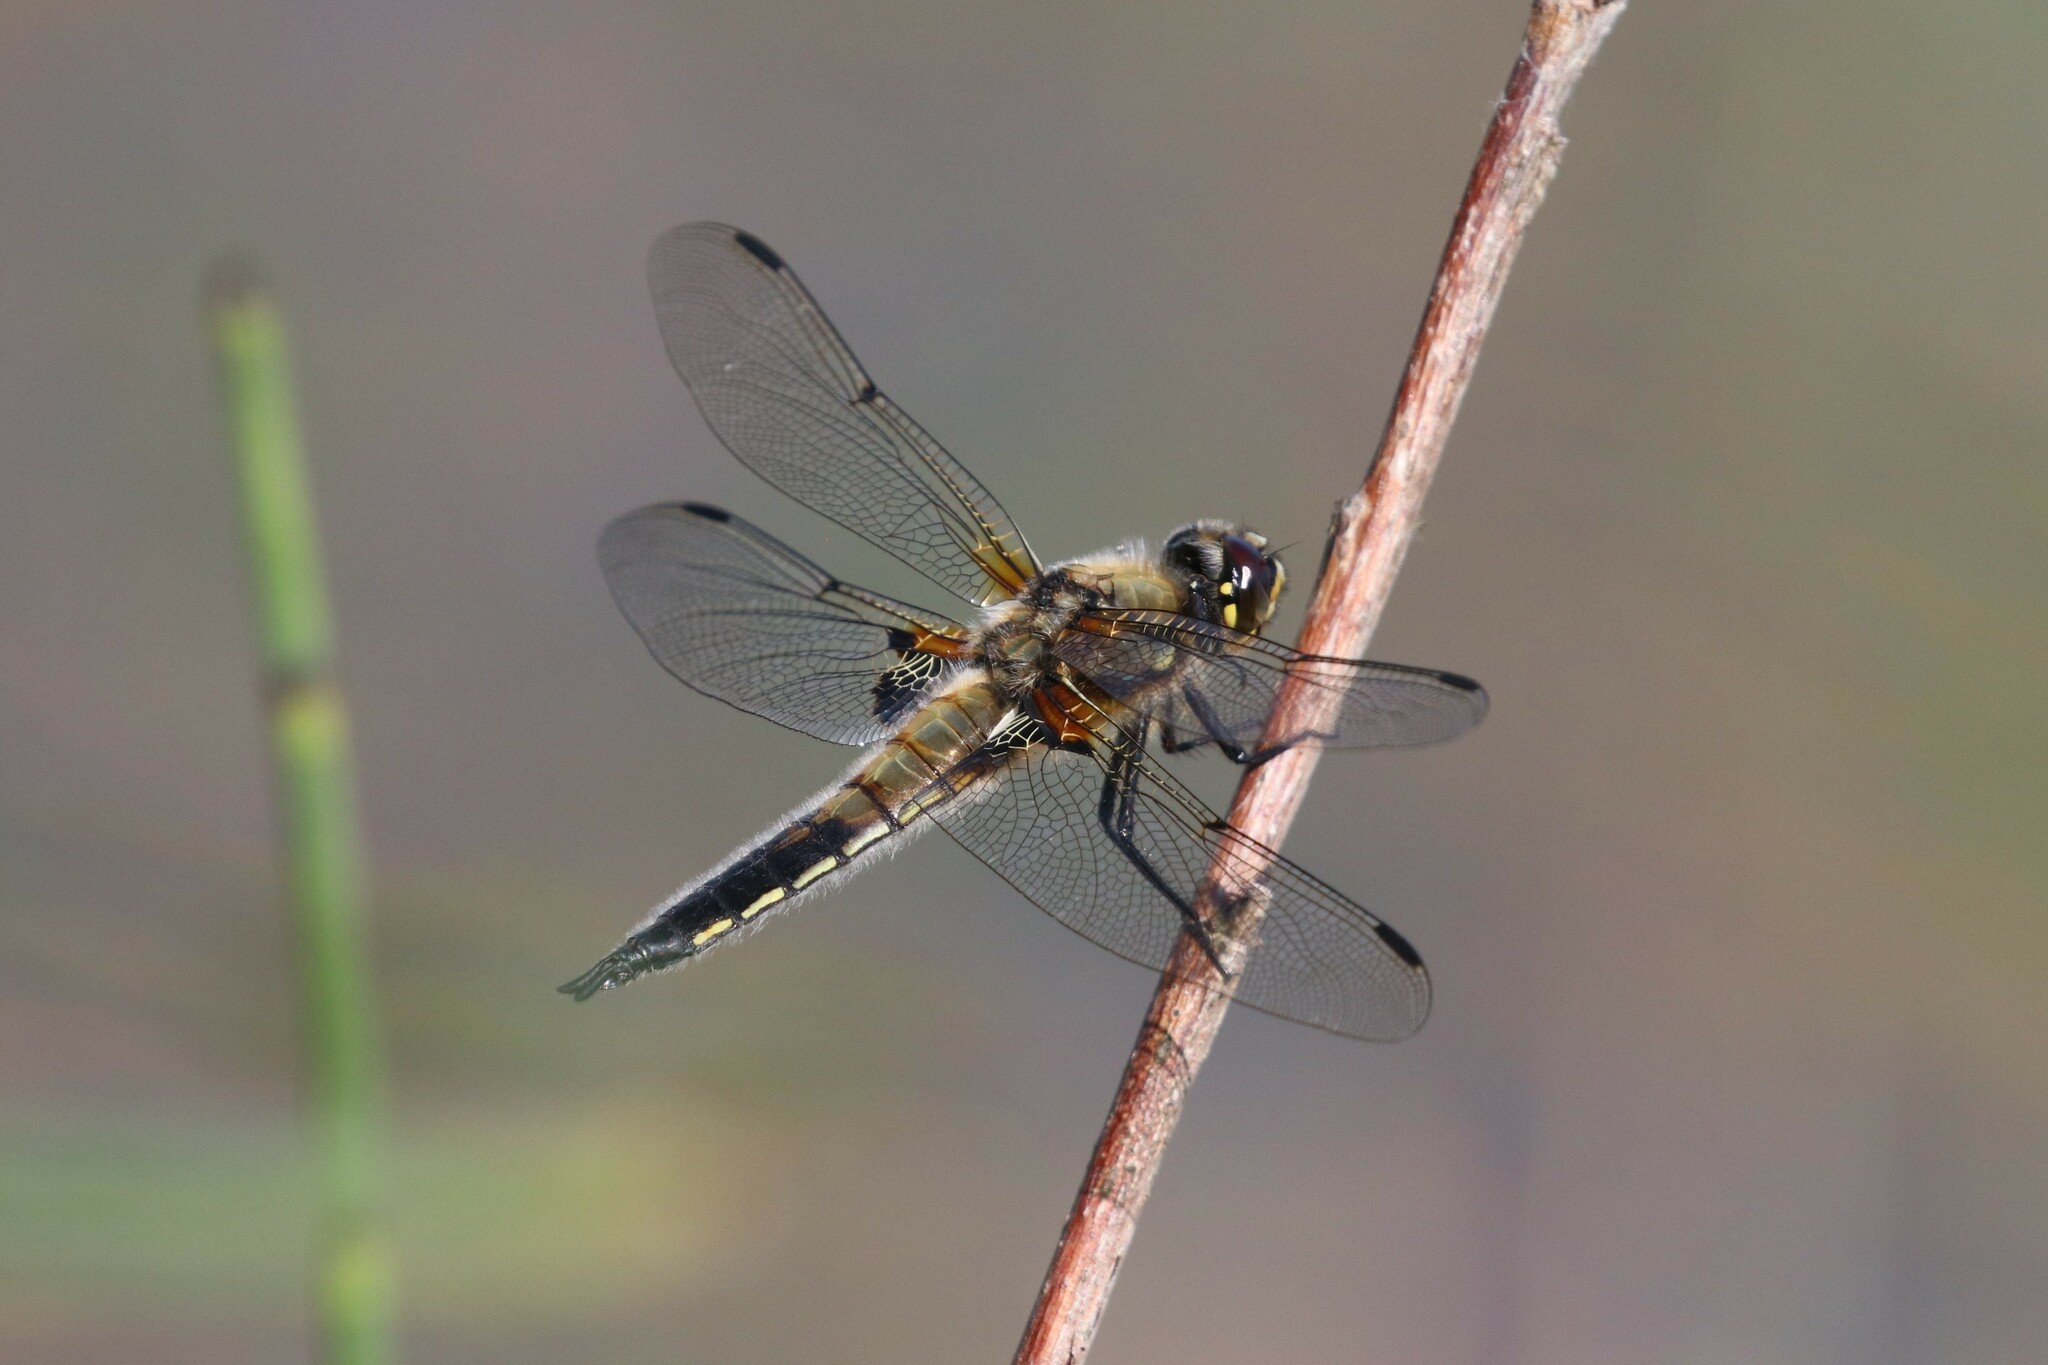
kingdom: Animalia
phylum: Arthropoda
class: Insecta
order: Odonata
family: Libellulidae
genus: Libellula
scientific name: Libellula quadrimaculata
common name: Four-spotted chaser
